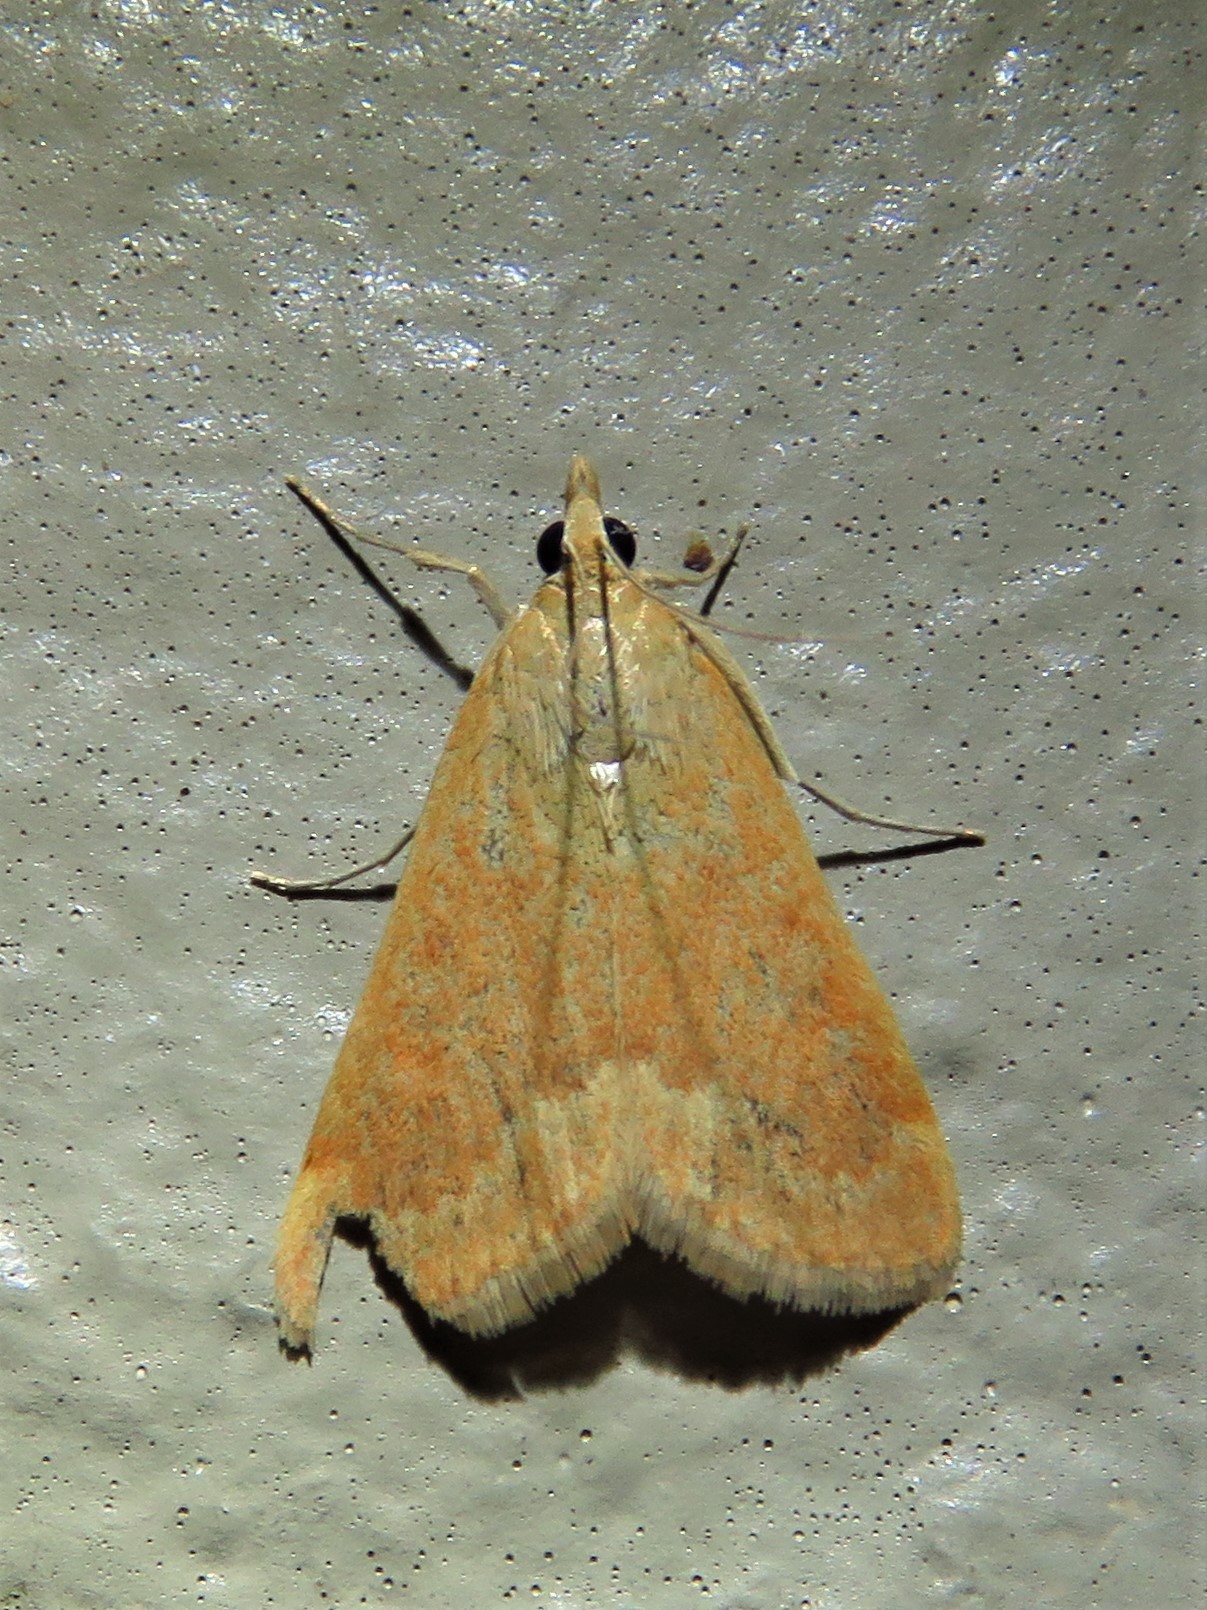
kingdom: Animalia
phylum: Arthropoda
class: Insecta
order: Lepidoptera
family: Crambidae
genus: Achyra
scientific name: Achyra rantalis
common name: Garden webworm
